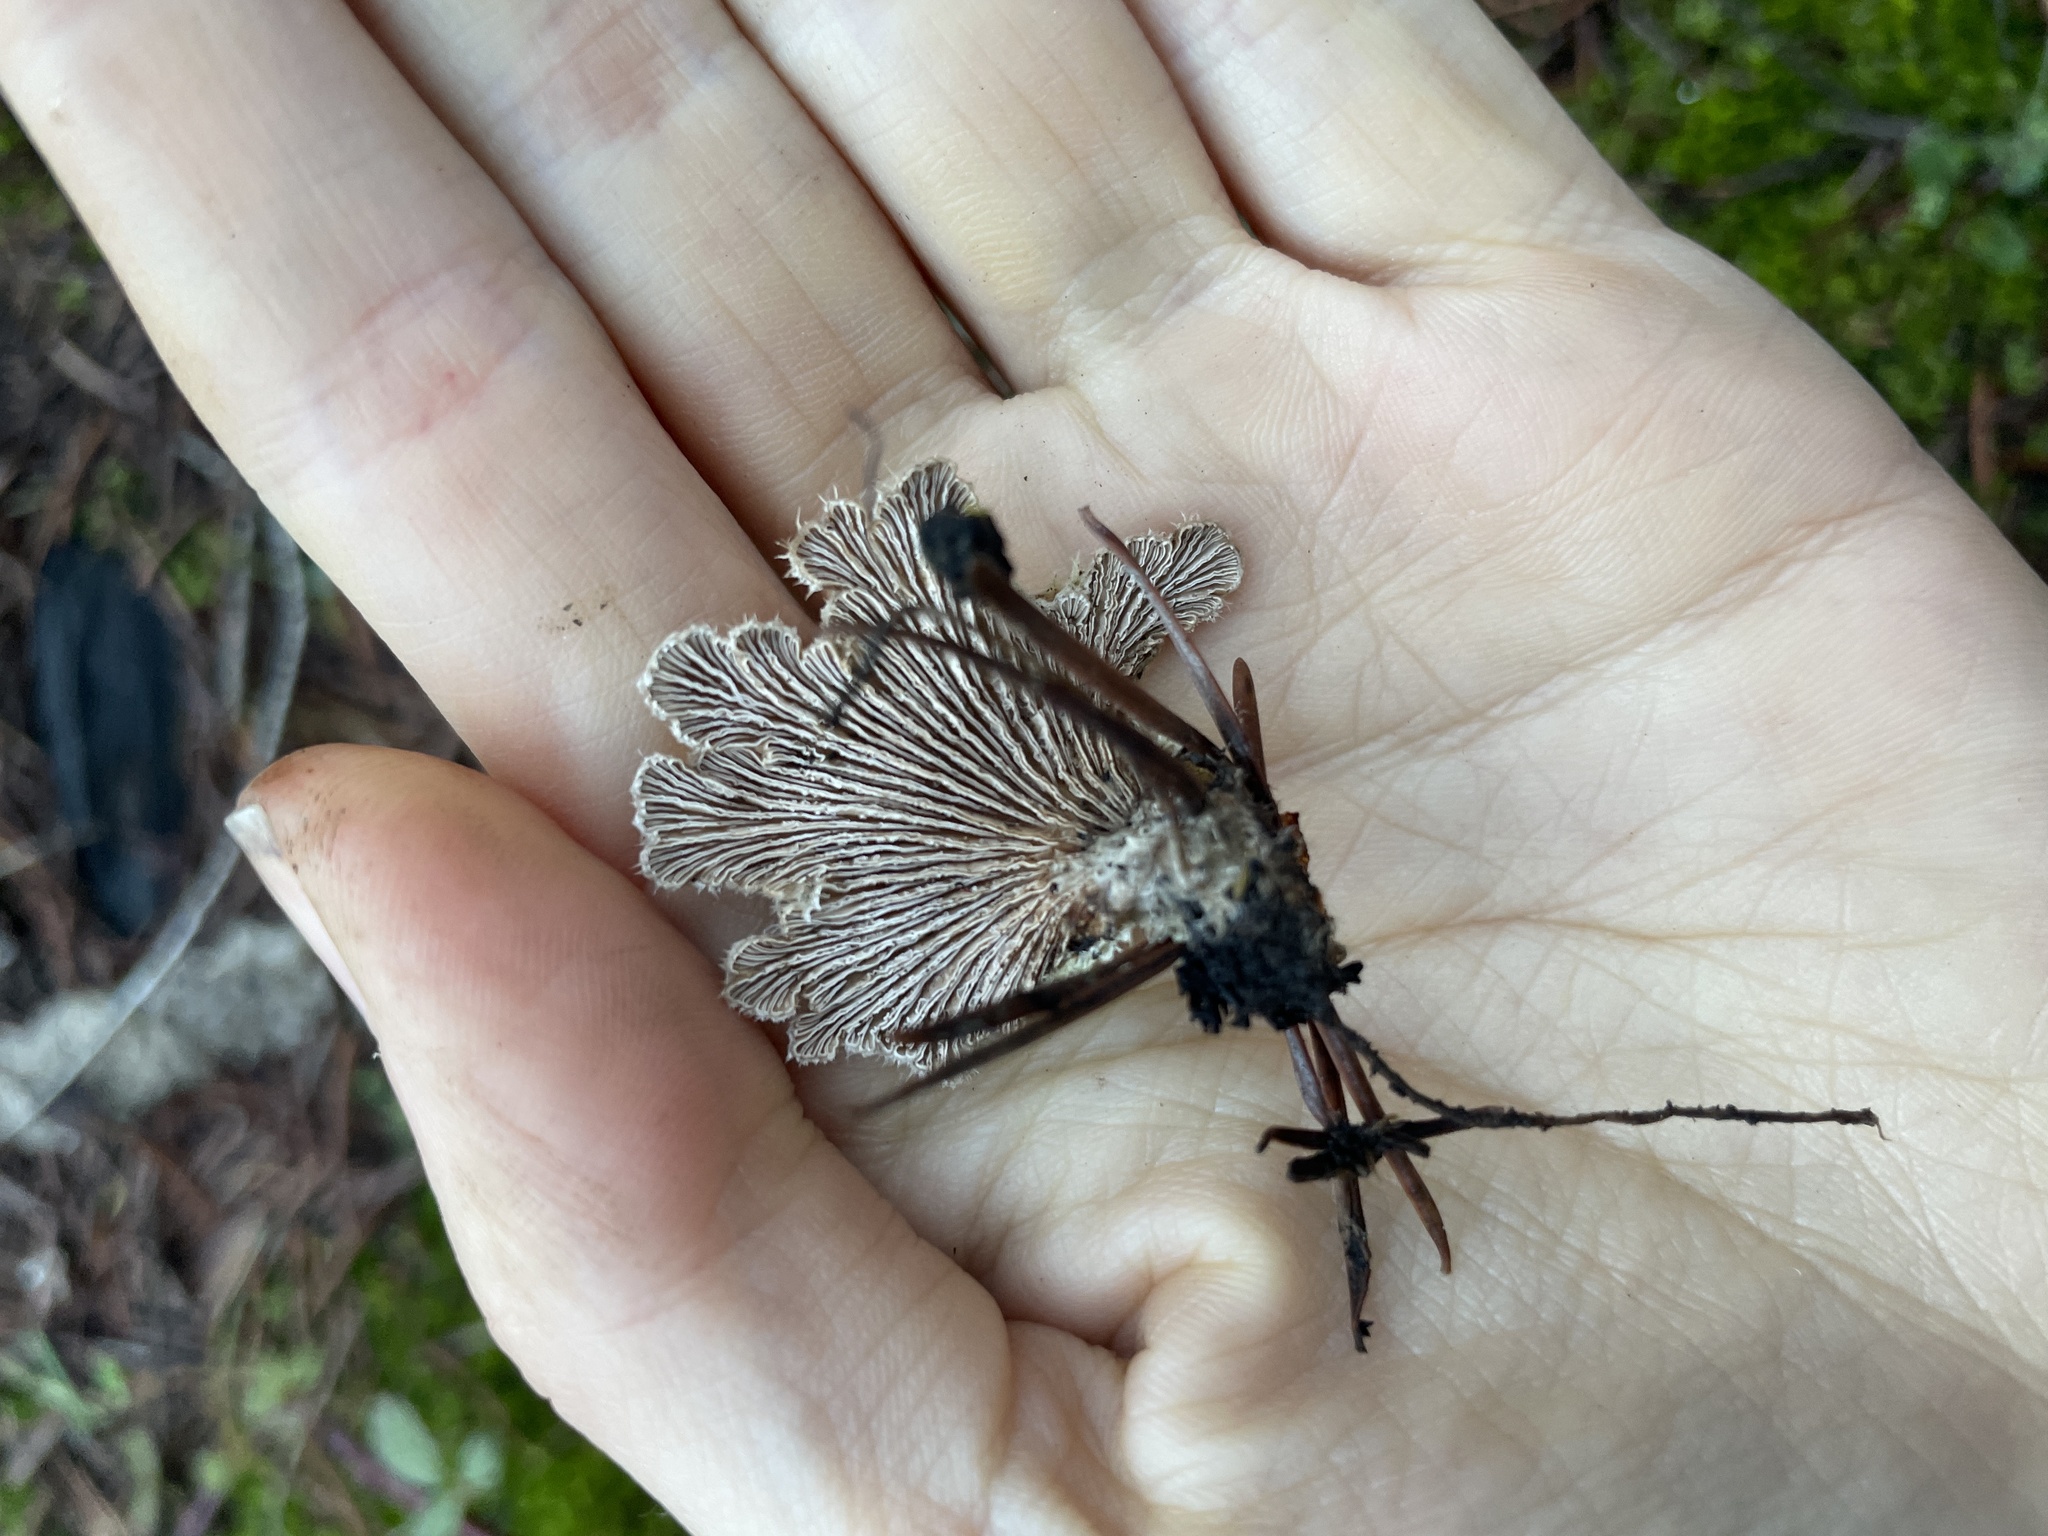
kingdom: Fungi
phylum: Basidiomycota
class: Agaricomycetes
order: Agaricales
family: Schizophyllaceae
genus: Schizophyllum
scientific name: Schizophyllum commune
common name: Common porecrust
